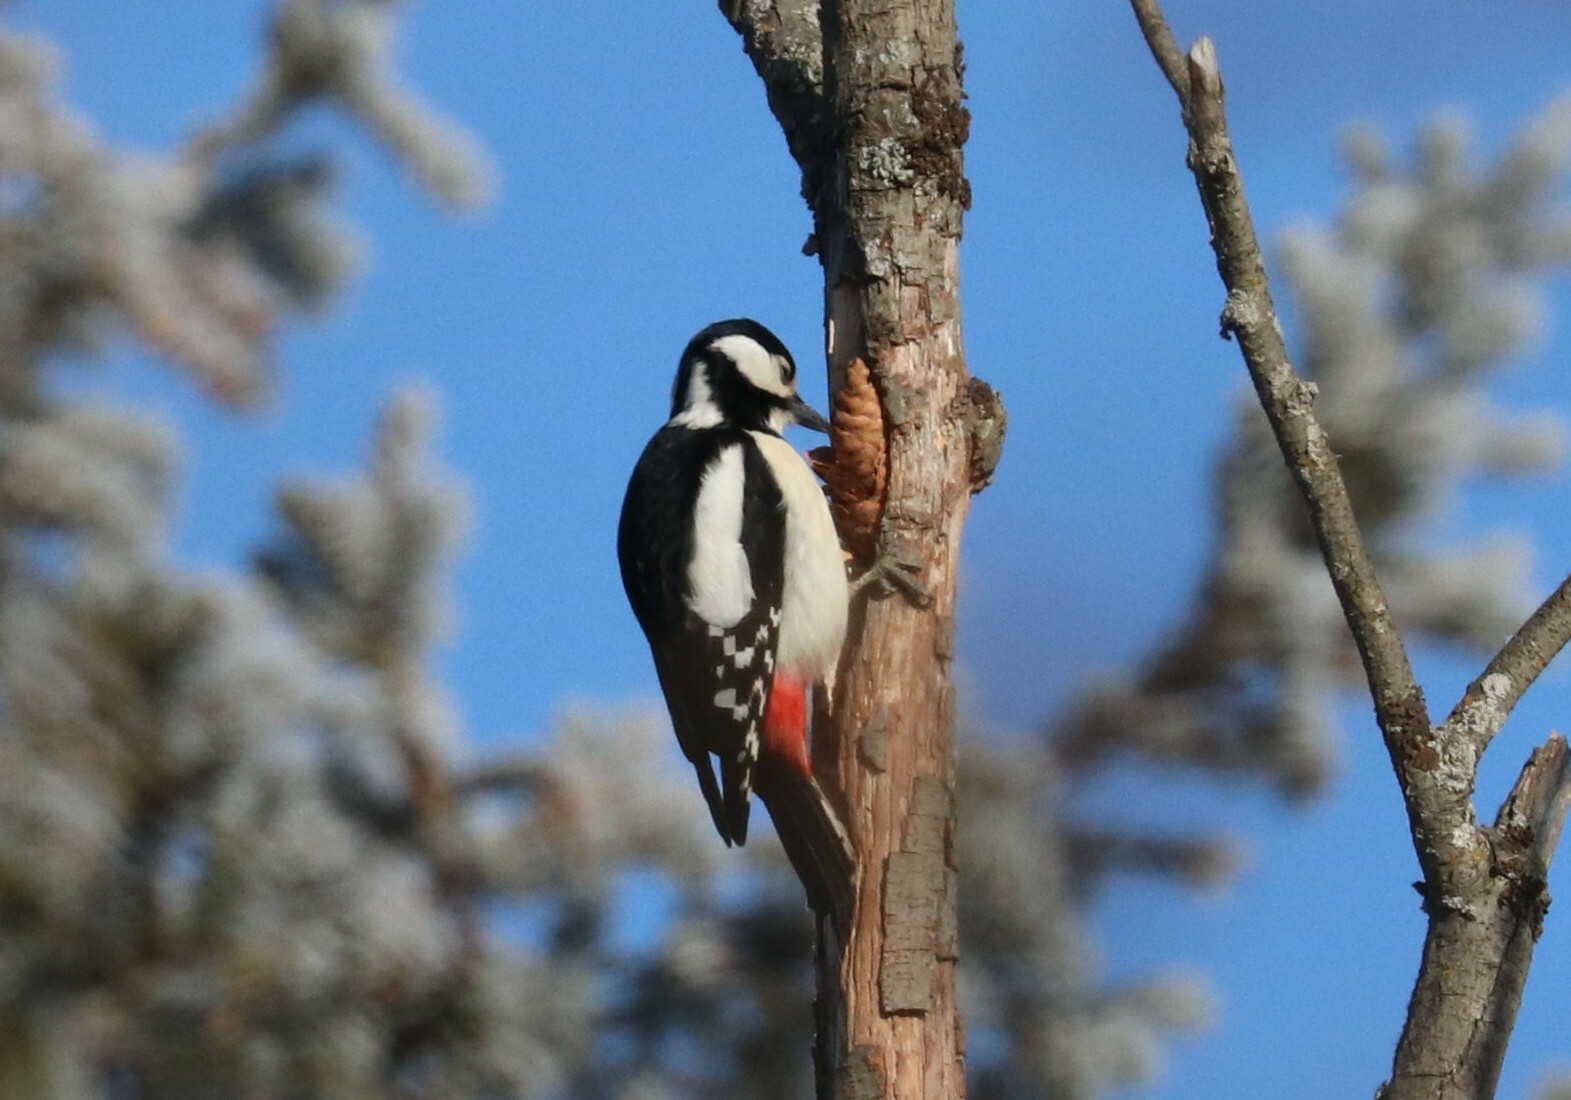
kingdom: Animalia
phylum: Chordata
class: Aves
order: Piciformes
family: Picidae
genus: Dendrocopos
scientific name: Dendrocopos major
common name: Great spotted woodpecker
